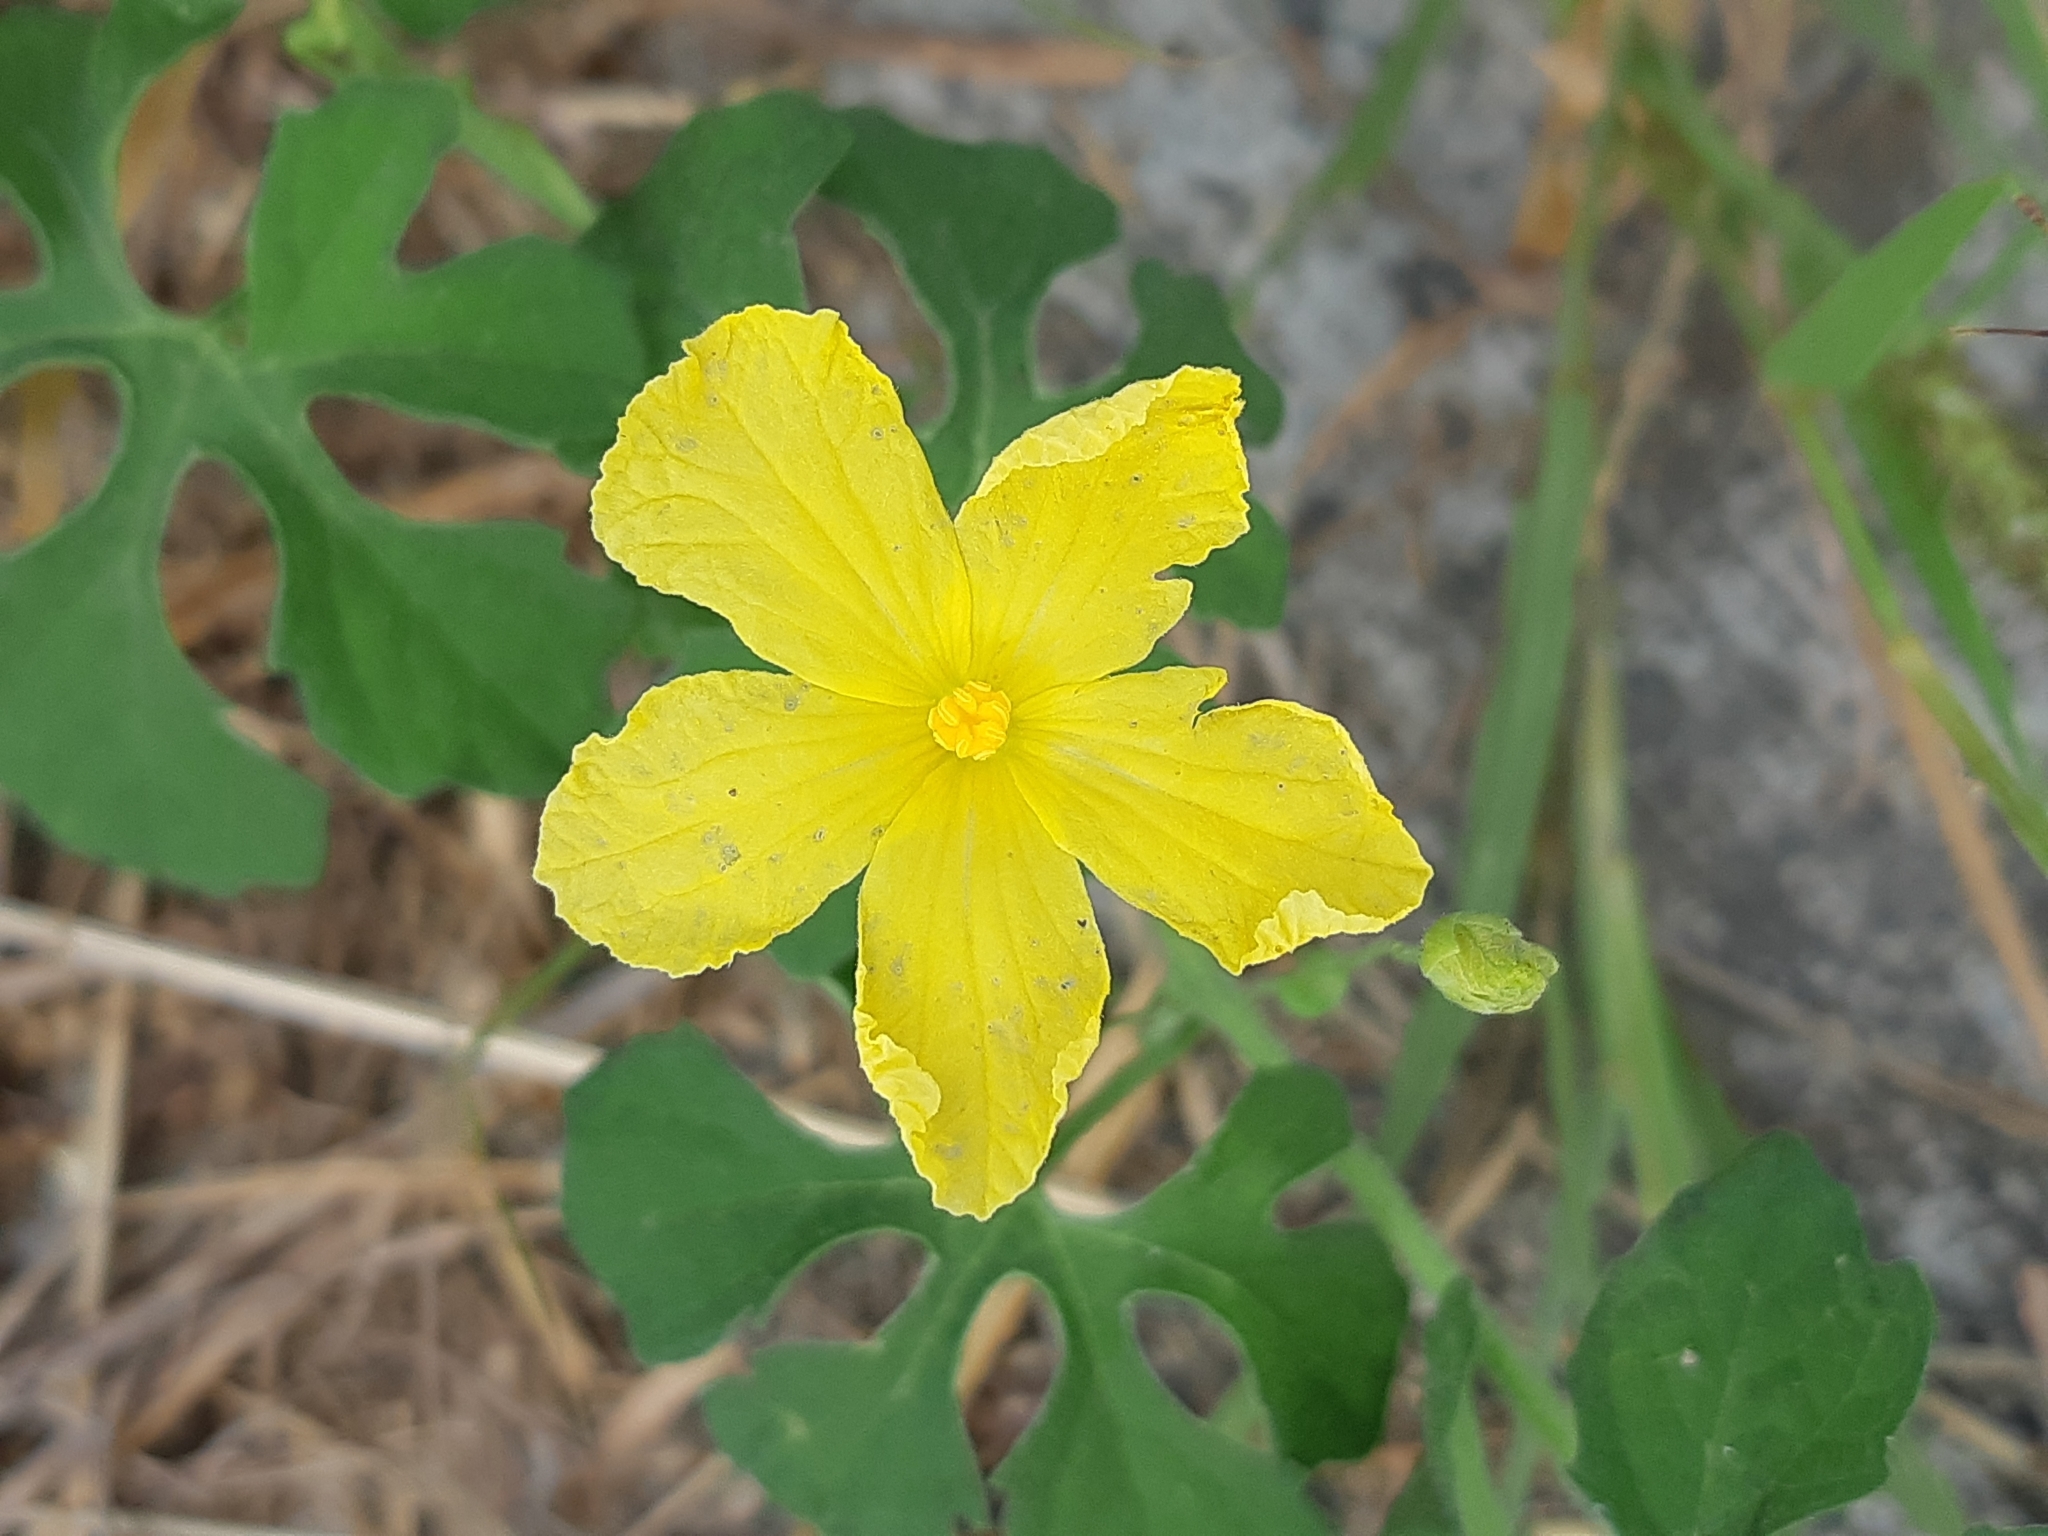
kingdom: Plantae
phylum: Tracheophyta
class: Magnoliopsida
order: Cucurbitales
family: Cucurbitaceae
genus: Momordica
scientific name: Momordica charantia
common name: Balsampear
